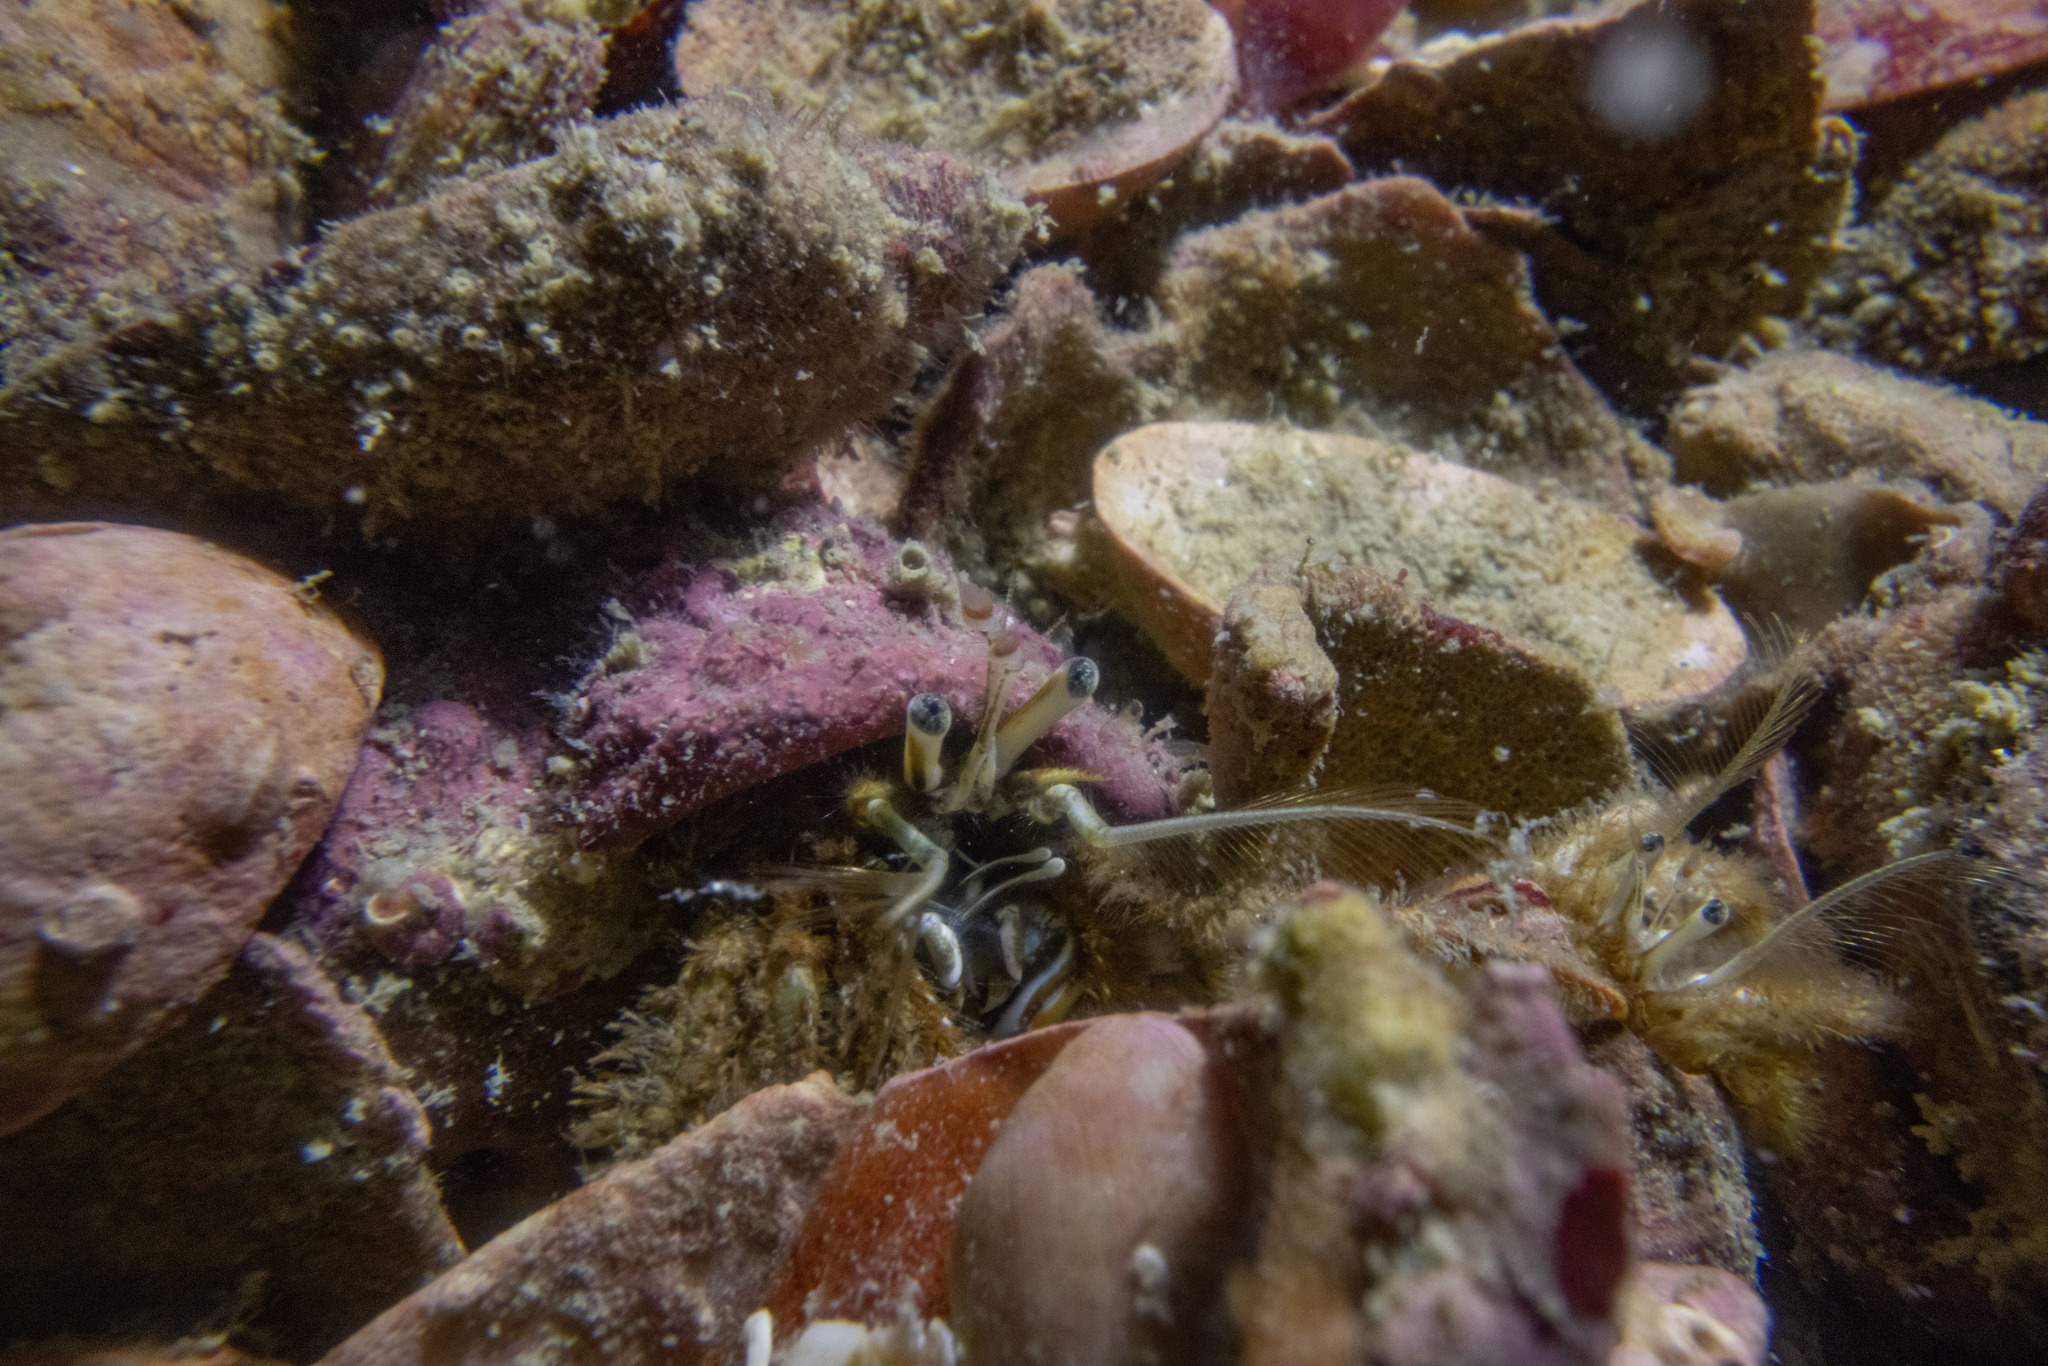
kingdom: Animalia
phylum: Arthropoda
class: Malacostraca
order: Decapoda
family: Diogenidae
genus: Areopaguristes
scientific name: Areopaguristes setosus
